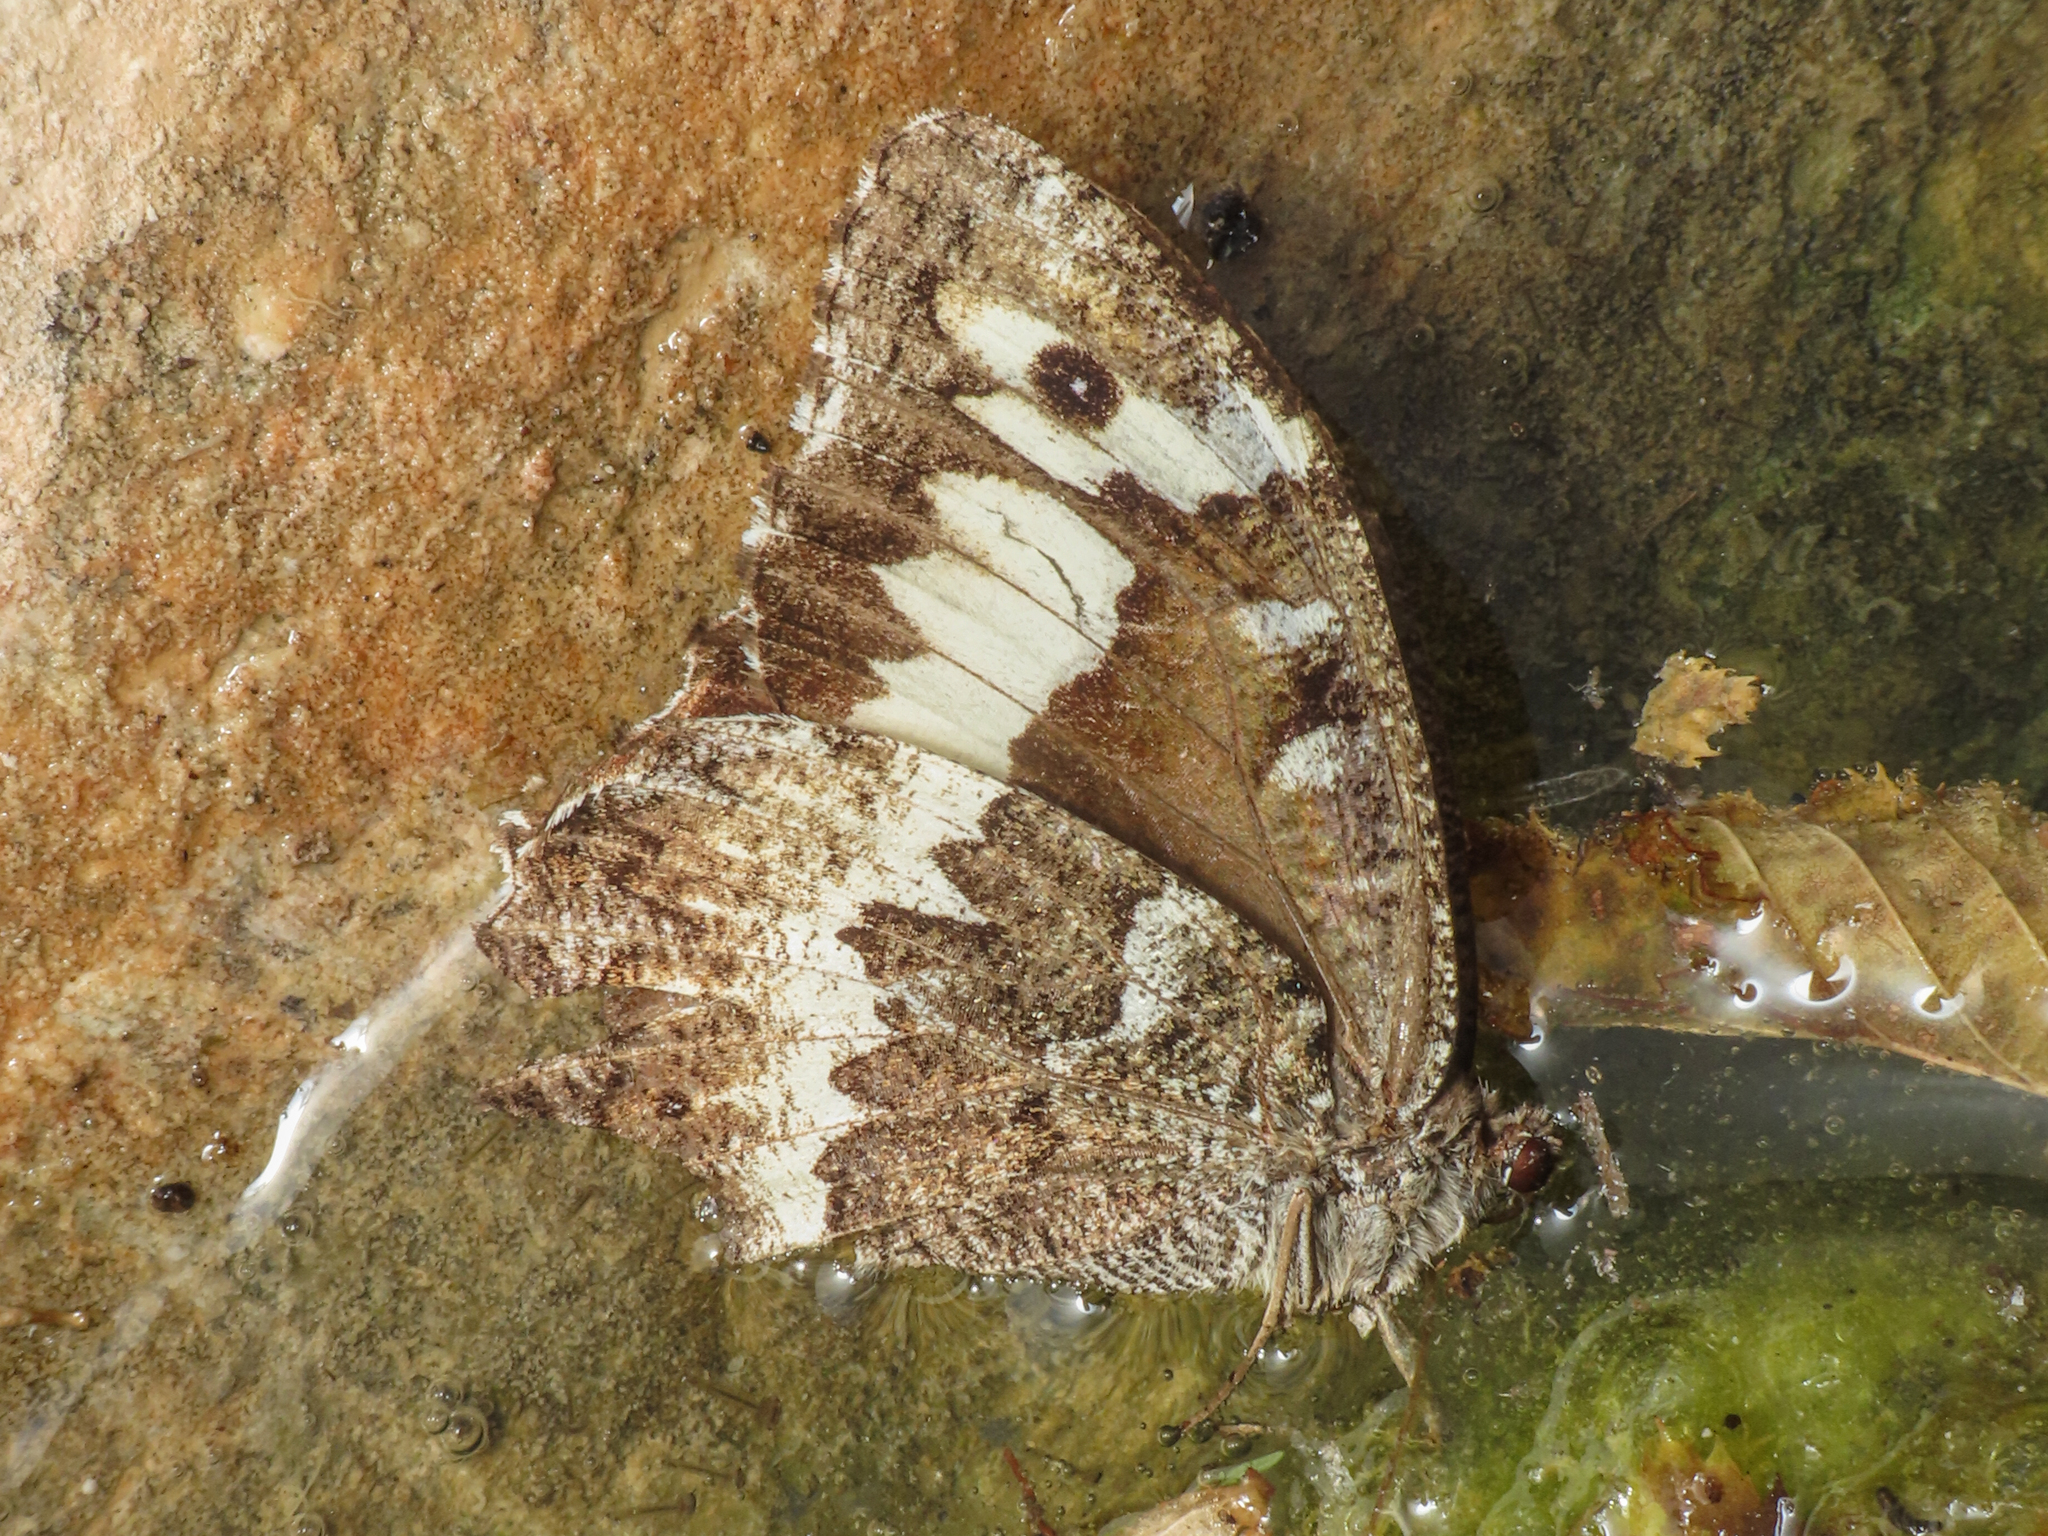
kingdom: Animalia
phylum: Arthropoda
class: Insecta
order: Lepidoptera
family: Lycaenidae
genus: Loweia
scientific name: Loweia tityrus
